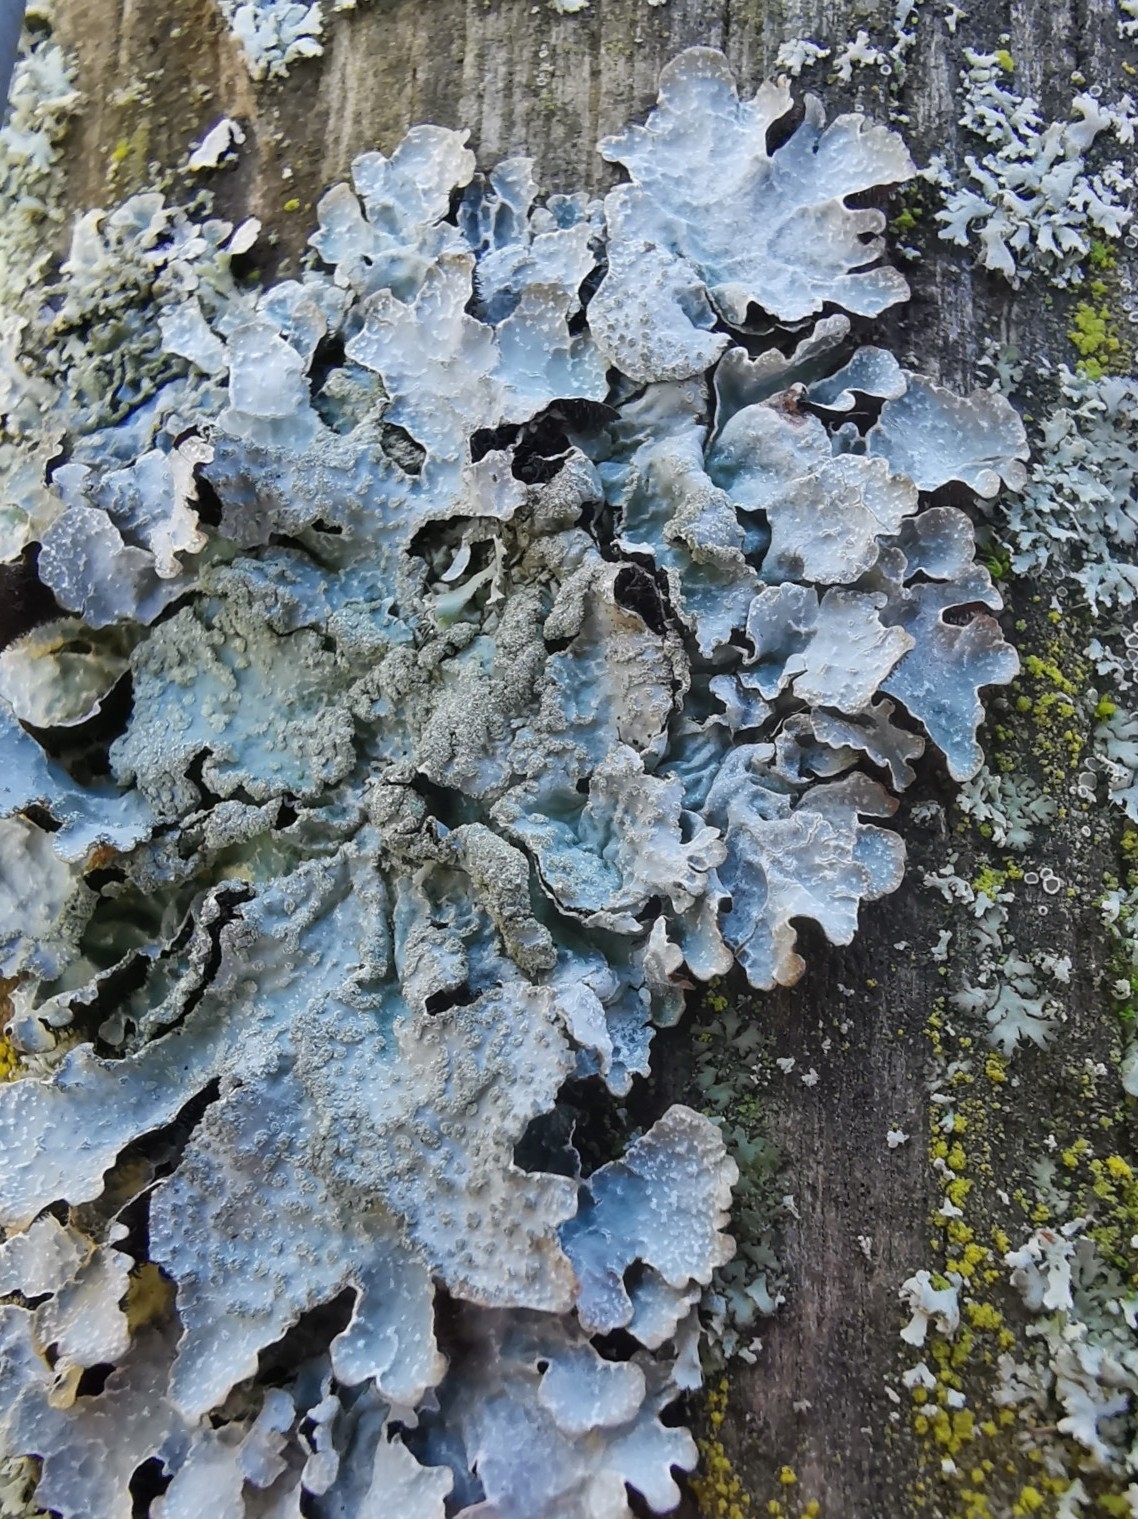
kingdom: Fungi
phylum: Ascomycota
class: Lecanoromycetes
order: Lecanorales
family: Parmeliaceae
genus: Parmelia
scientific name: Parmelia sulcata
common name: Netted shield lichen
